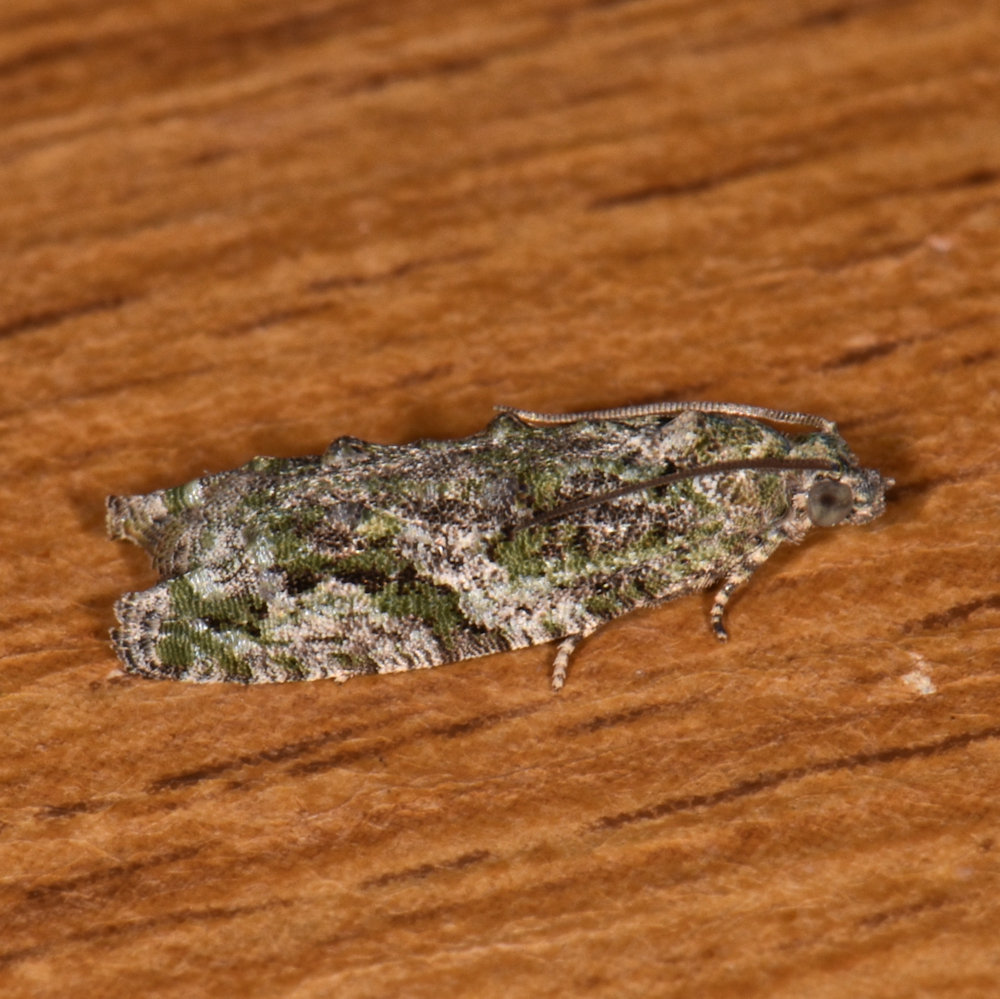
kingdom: Animalia
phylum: Arthropoda
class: Insecta
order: Lepidoptera
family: Tortricidae
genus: Proteoteras
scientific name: Proteoteras aesculana
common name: Maple twig borer moth
